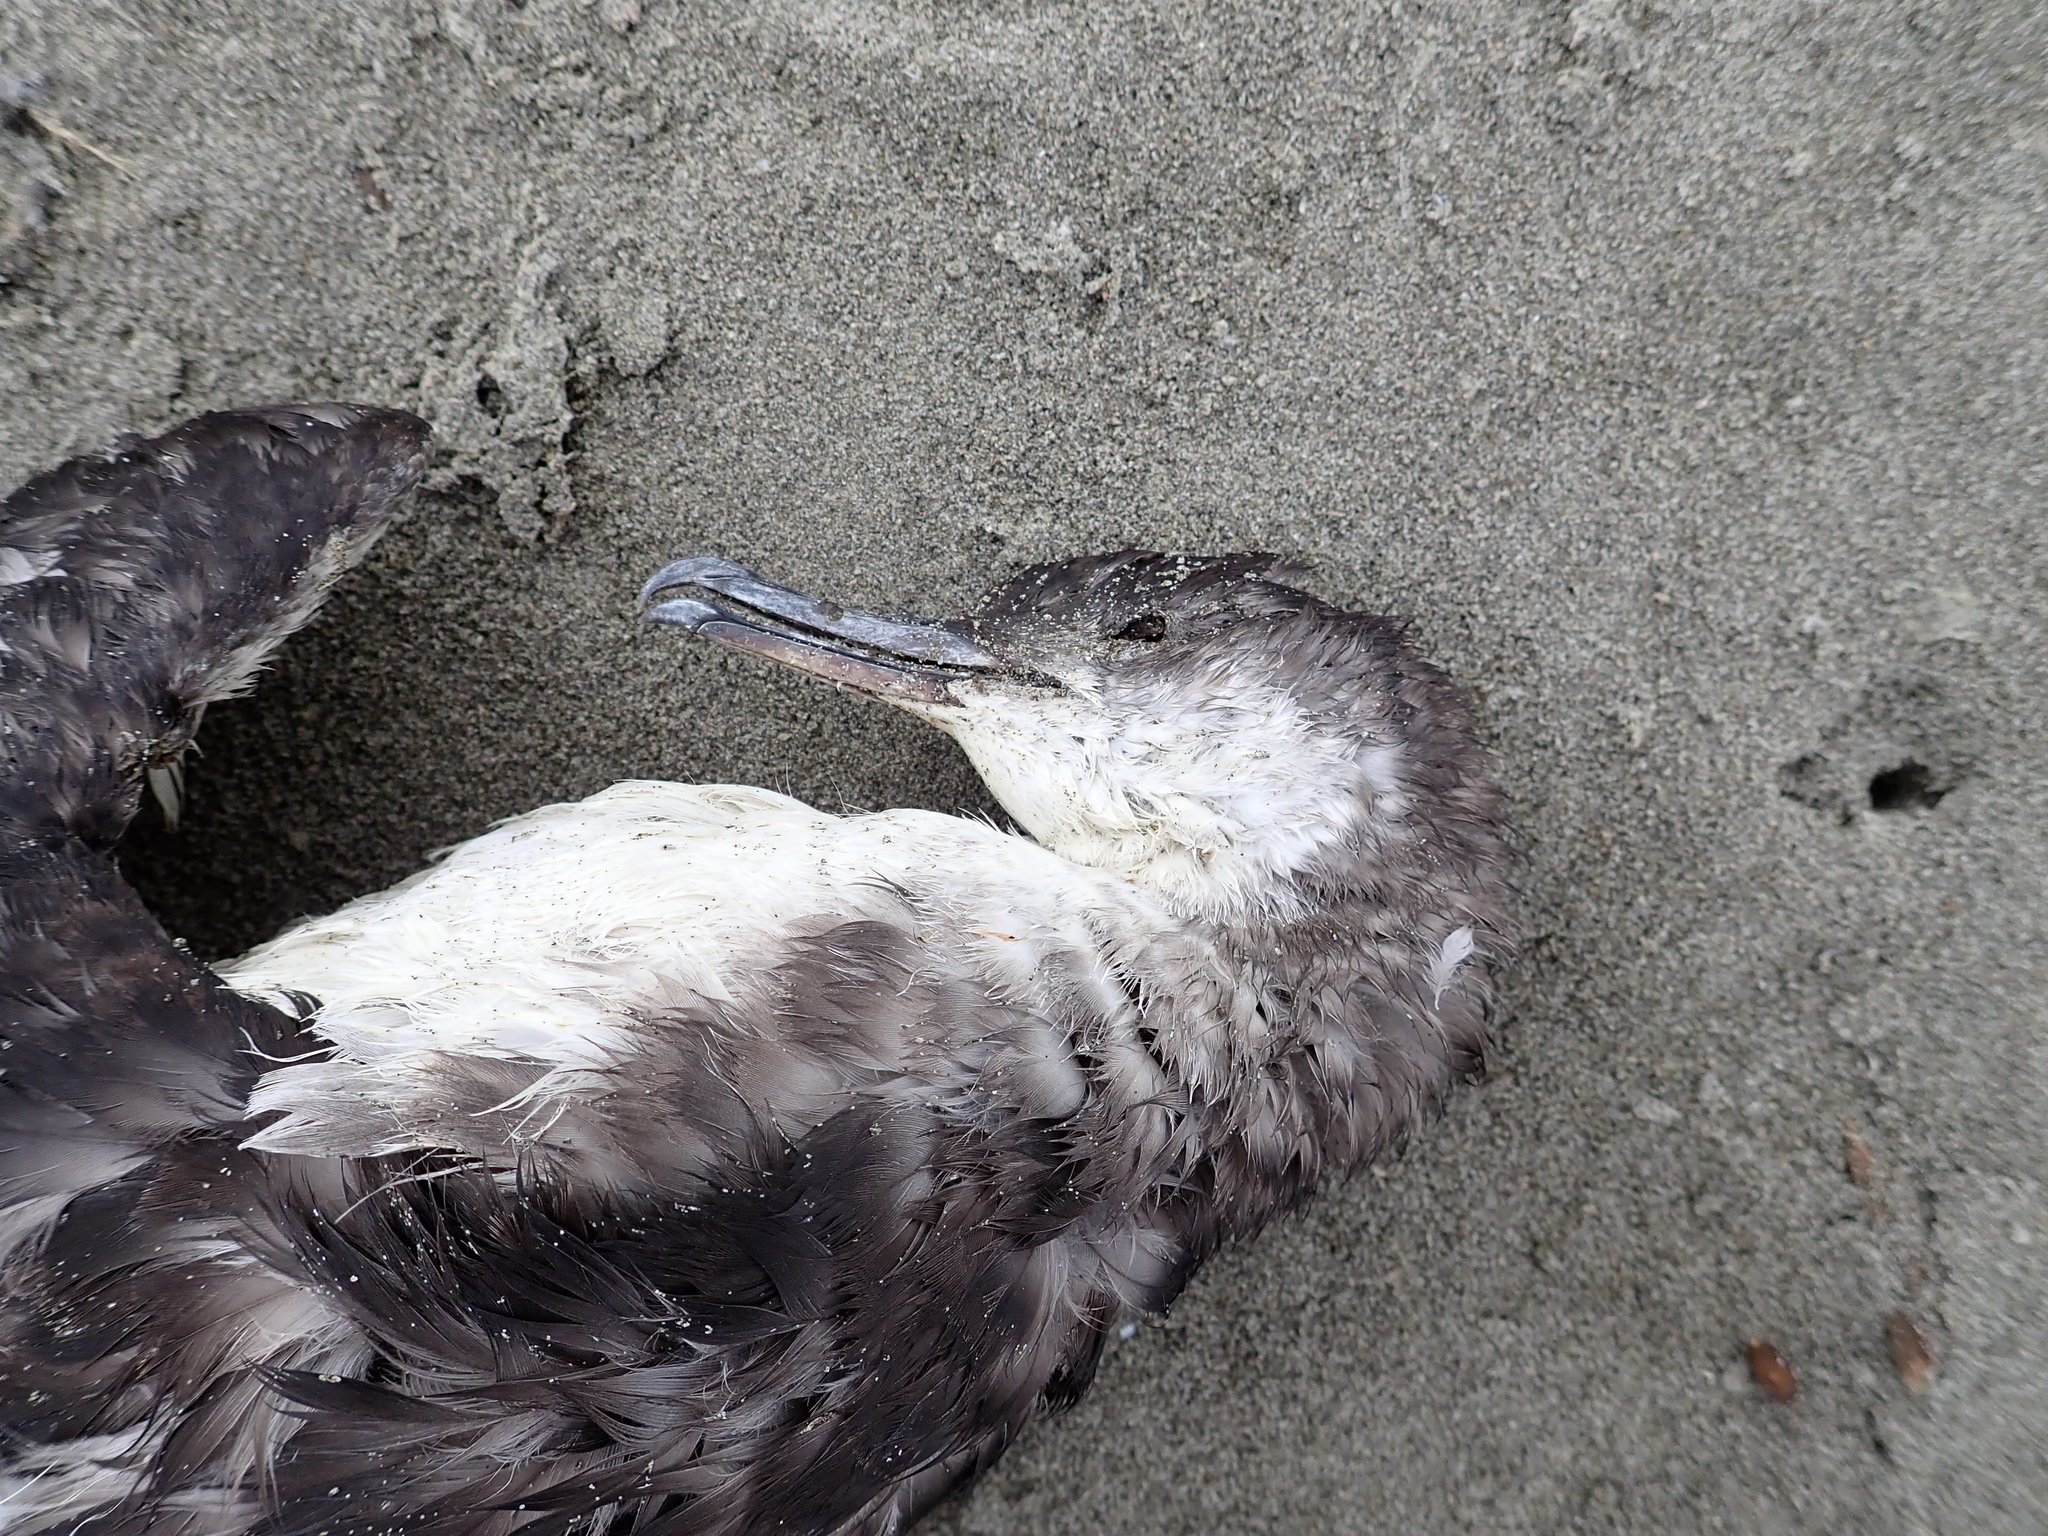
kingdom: Animalia
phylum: Chordata
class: Aves
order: Procellariiformes
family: Procellariidae
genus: Puffinus
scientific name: Puffinus gavia
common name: Fluttering shearwater
